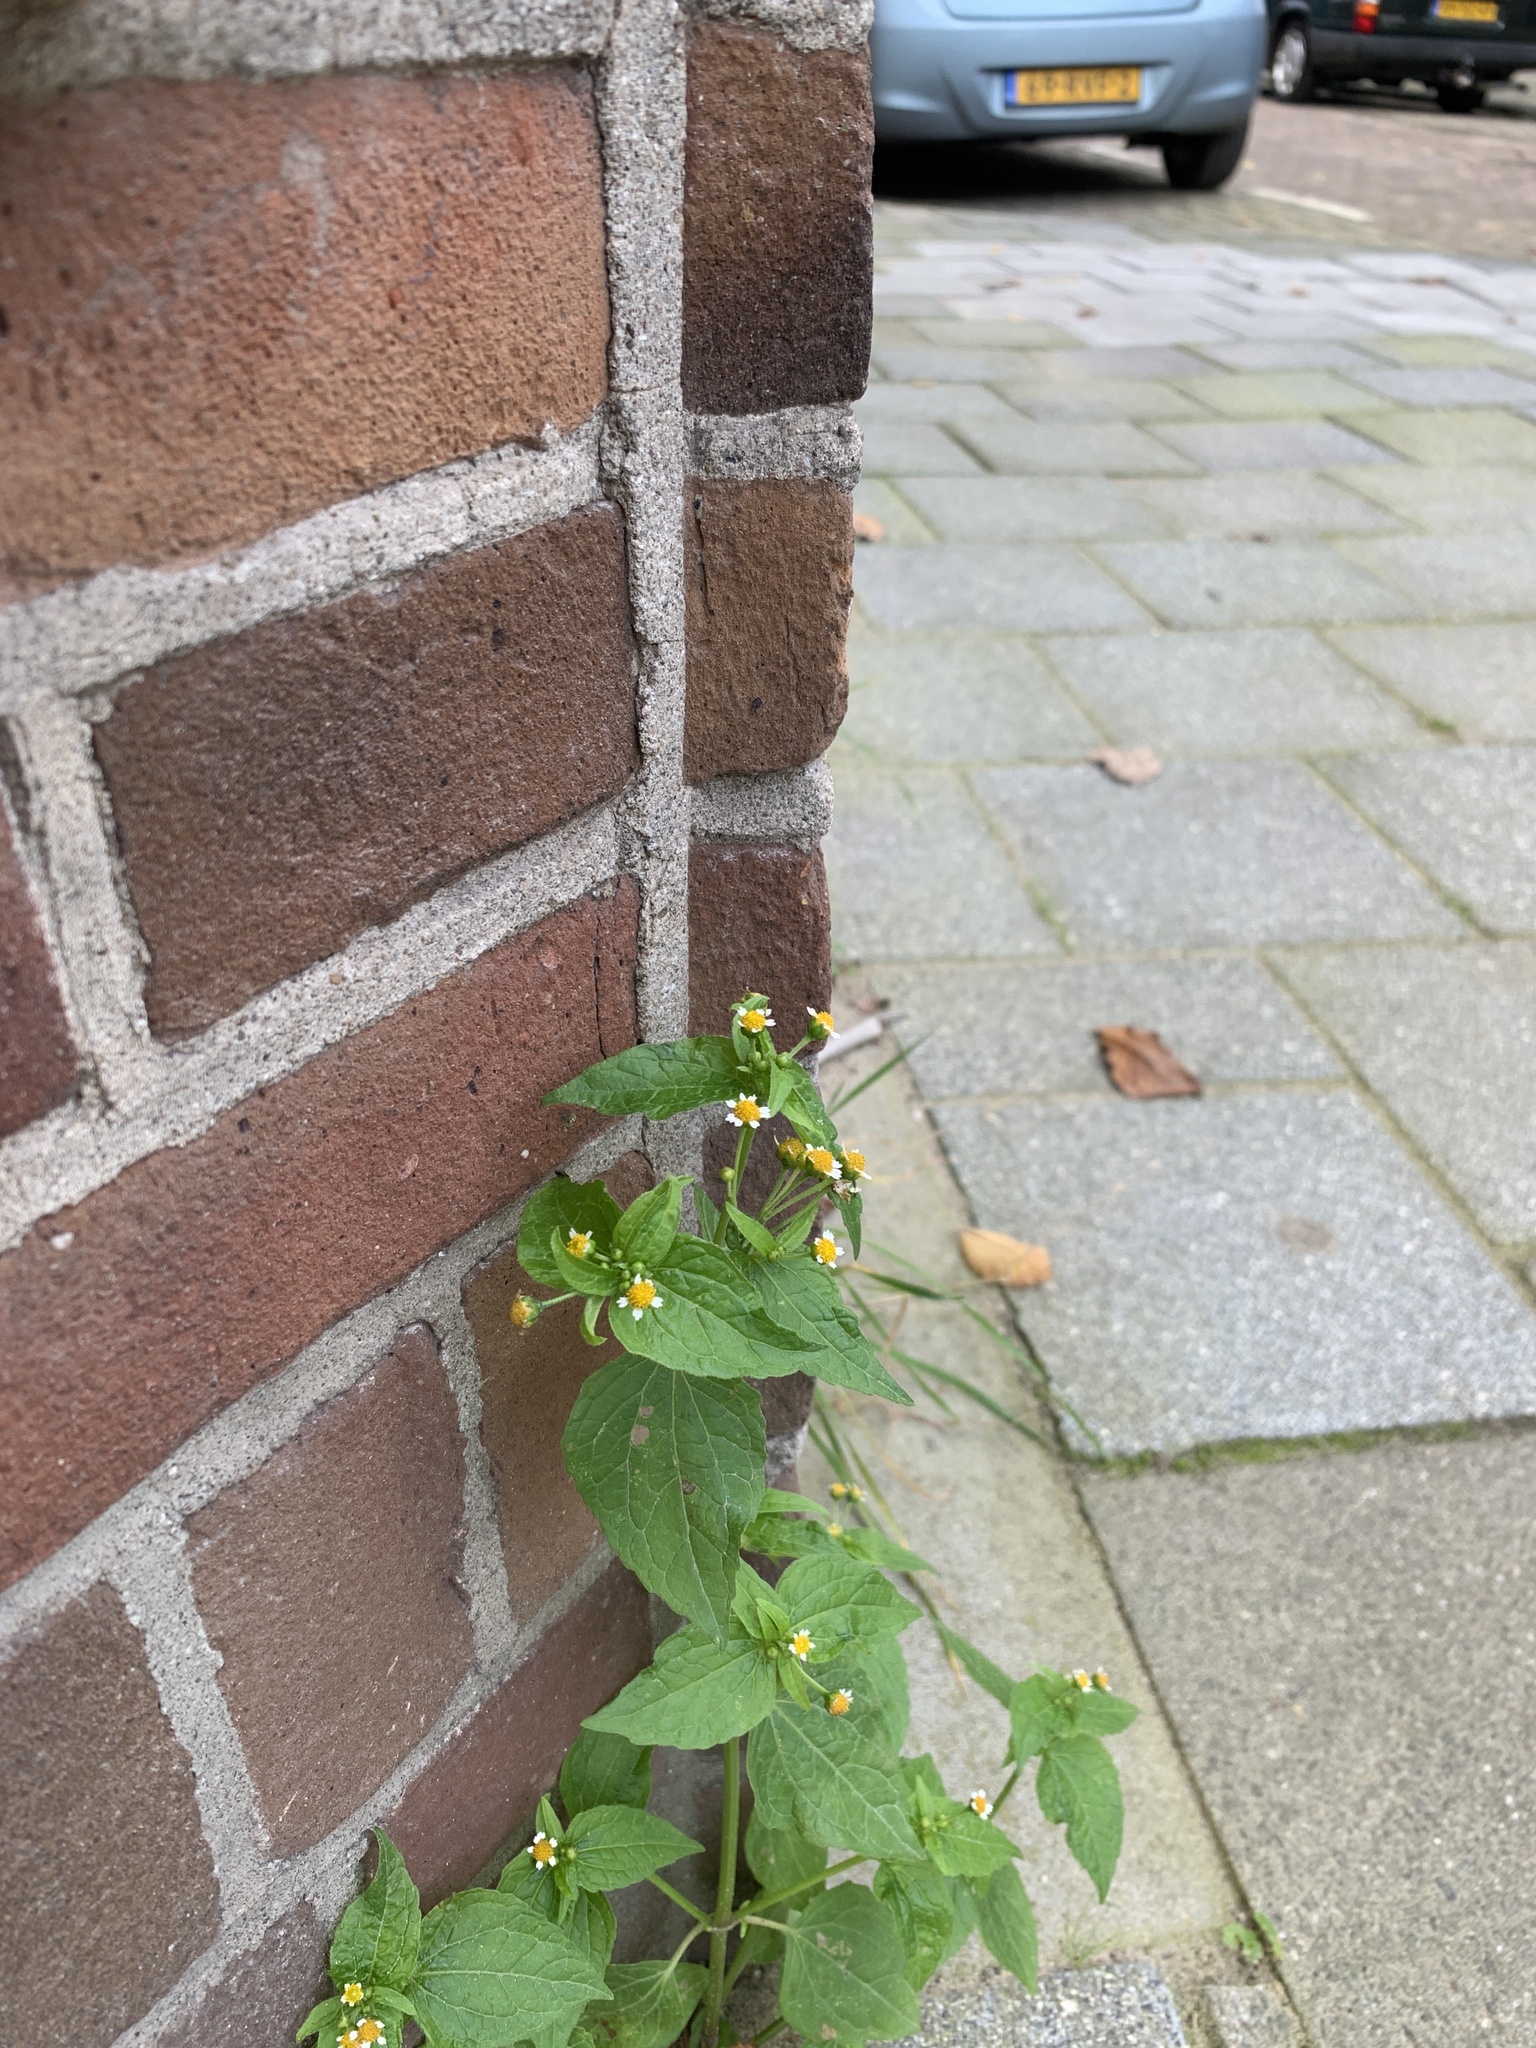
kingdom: Plantae
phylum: Tracheophyta
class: Magnoliopsida
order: Asterales
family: Asteraceae
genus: Galinsoga
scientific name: Galinsoga parviflora
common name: Gallant soldier
